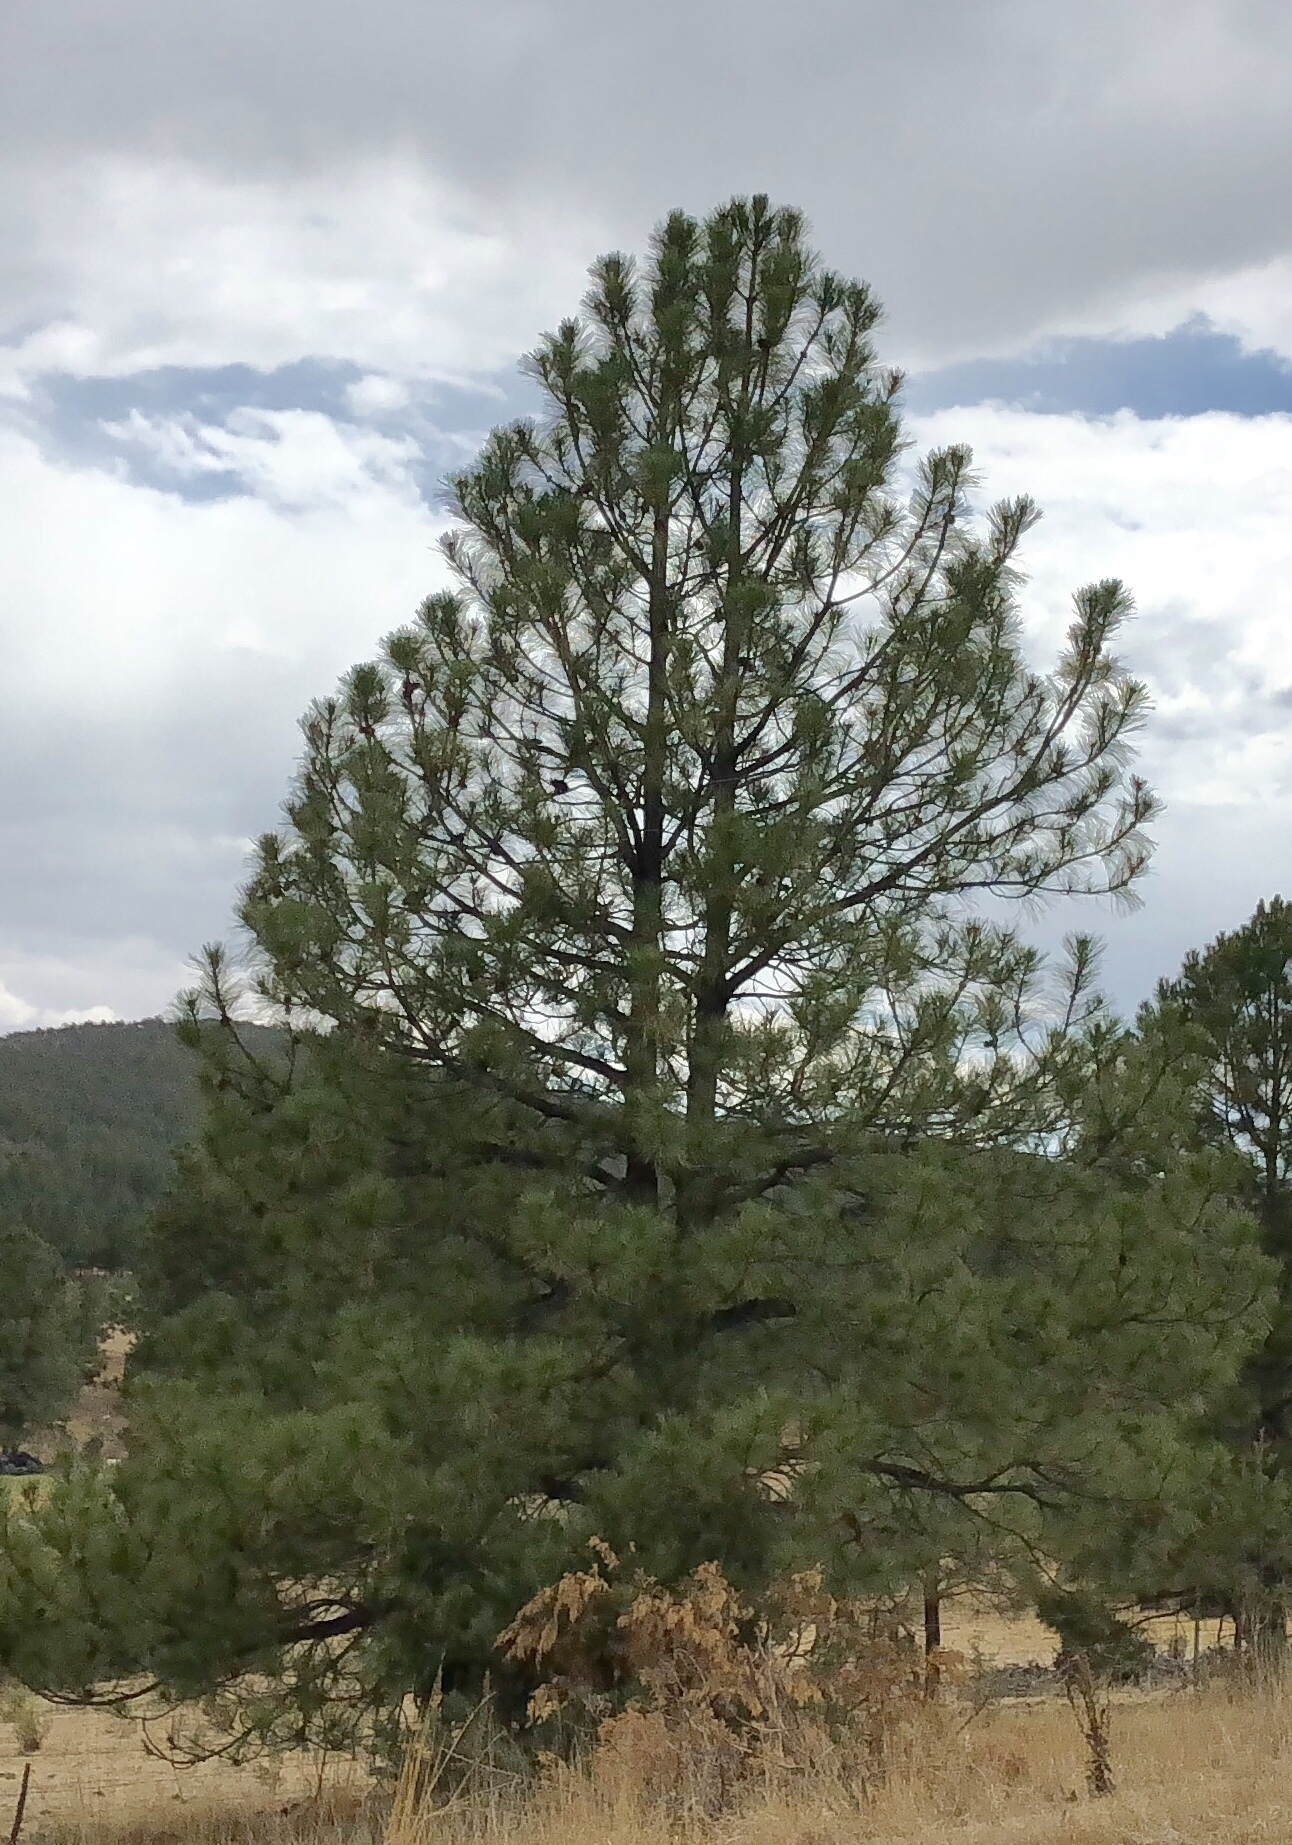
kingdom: Plantae
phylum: Tracheophyta
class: Pinopsida
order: Pinales
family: Pinaceae
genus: Pinus
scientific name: Pinus ponderosa
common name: Western yellow-pine
